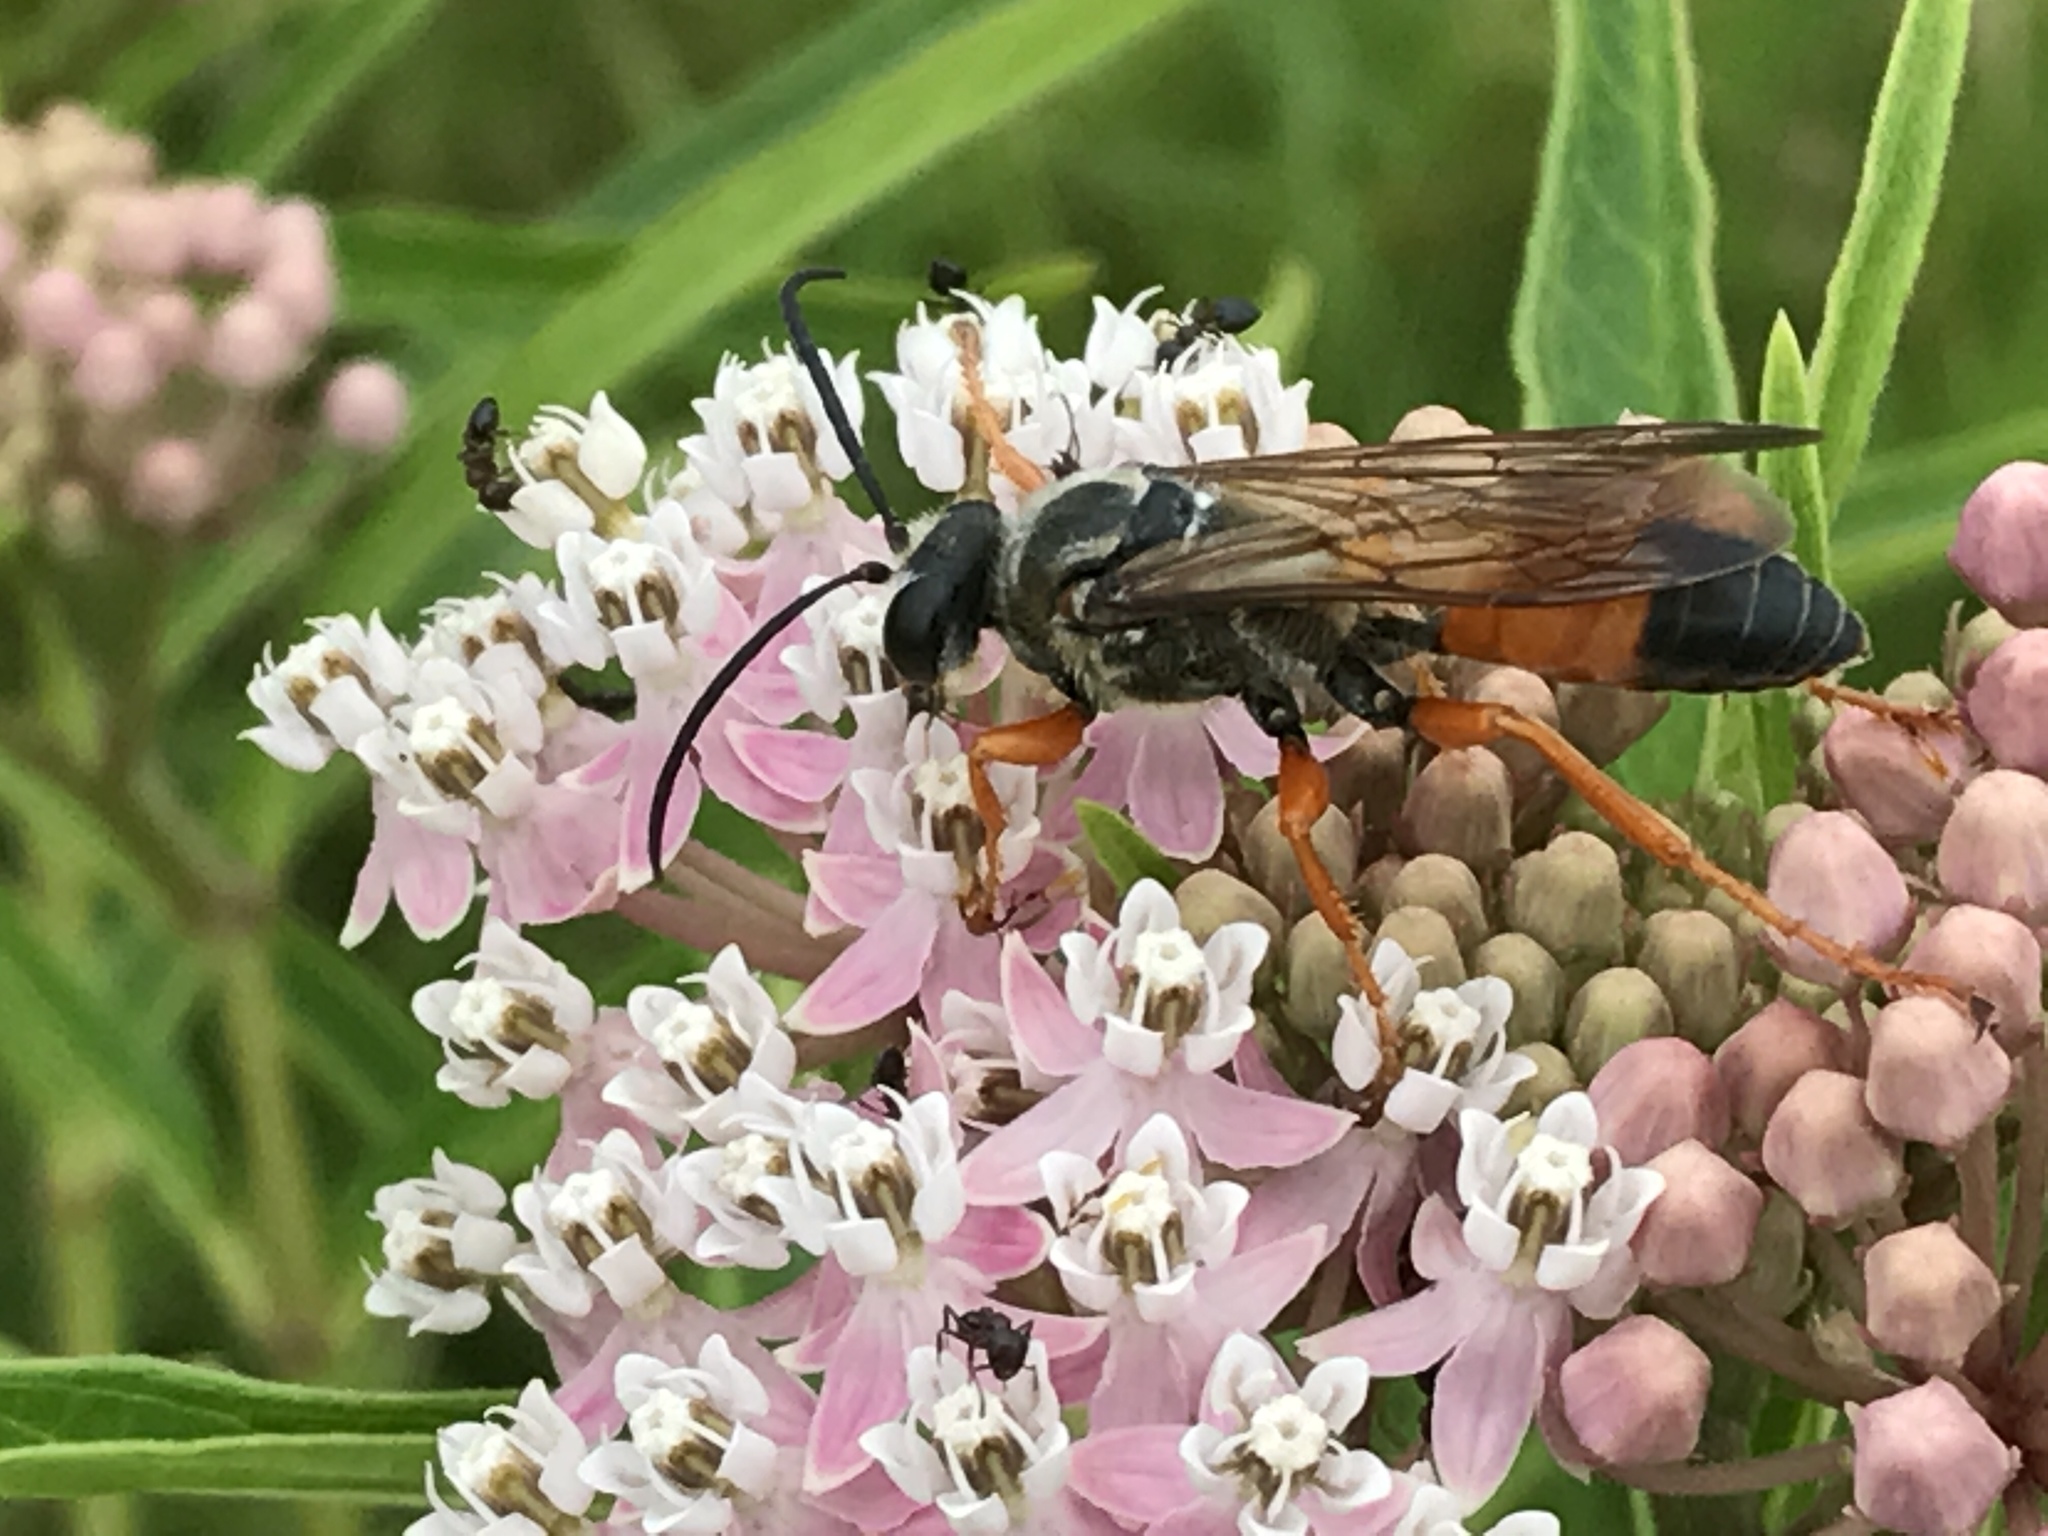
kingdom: Animalia
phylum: Arthropoda
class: Insecta
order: Hymenoptera
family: Sphecidae
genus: Sphex
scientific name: Sphex ichneumoneus
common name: Great golden digger wasp
